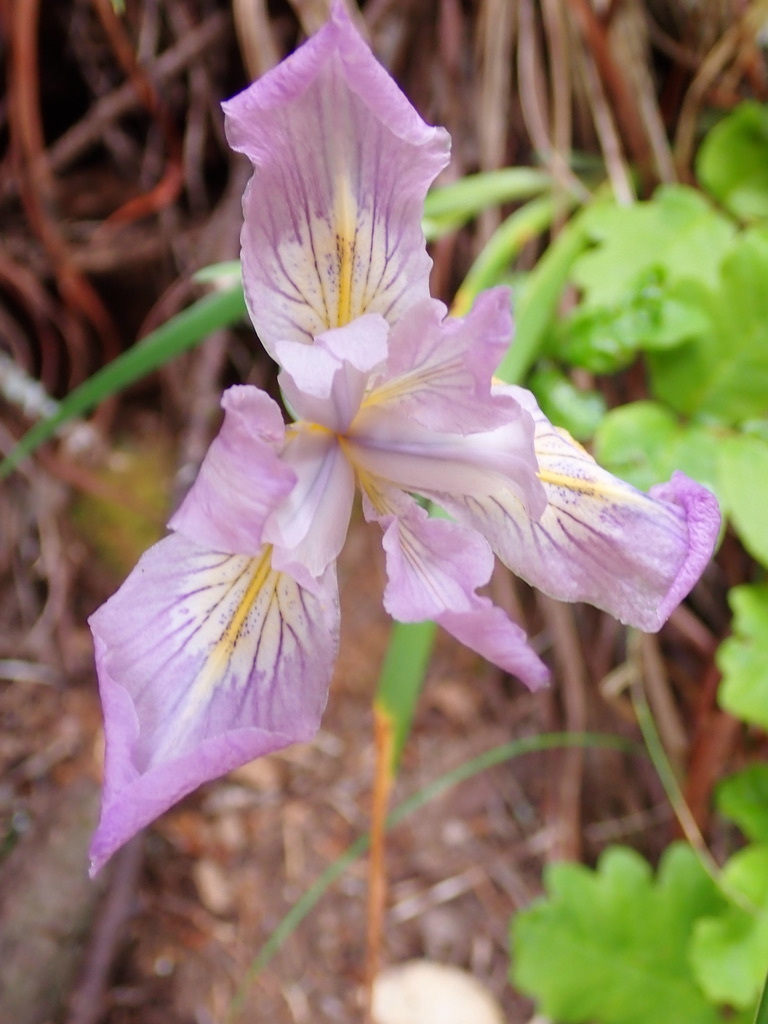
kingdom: Plantae
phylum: Tracheophyta
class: Liliopsida
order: Asparagales
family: Iridaceae
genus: Iris
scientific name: Iris douglasiana
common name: Marin iris
